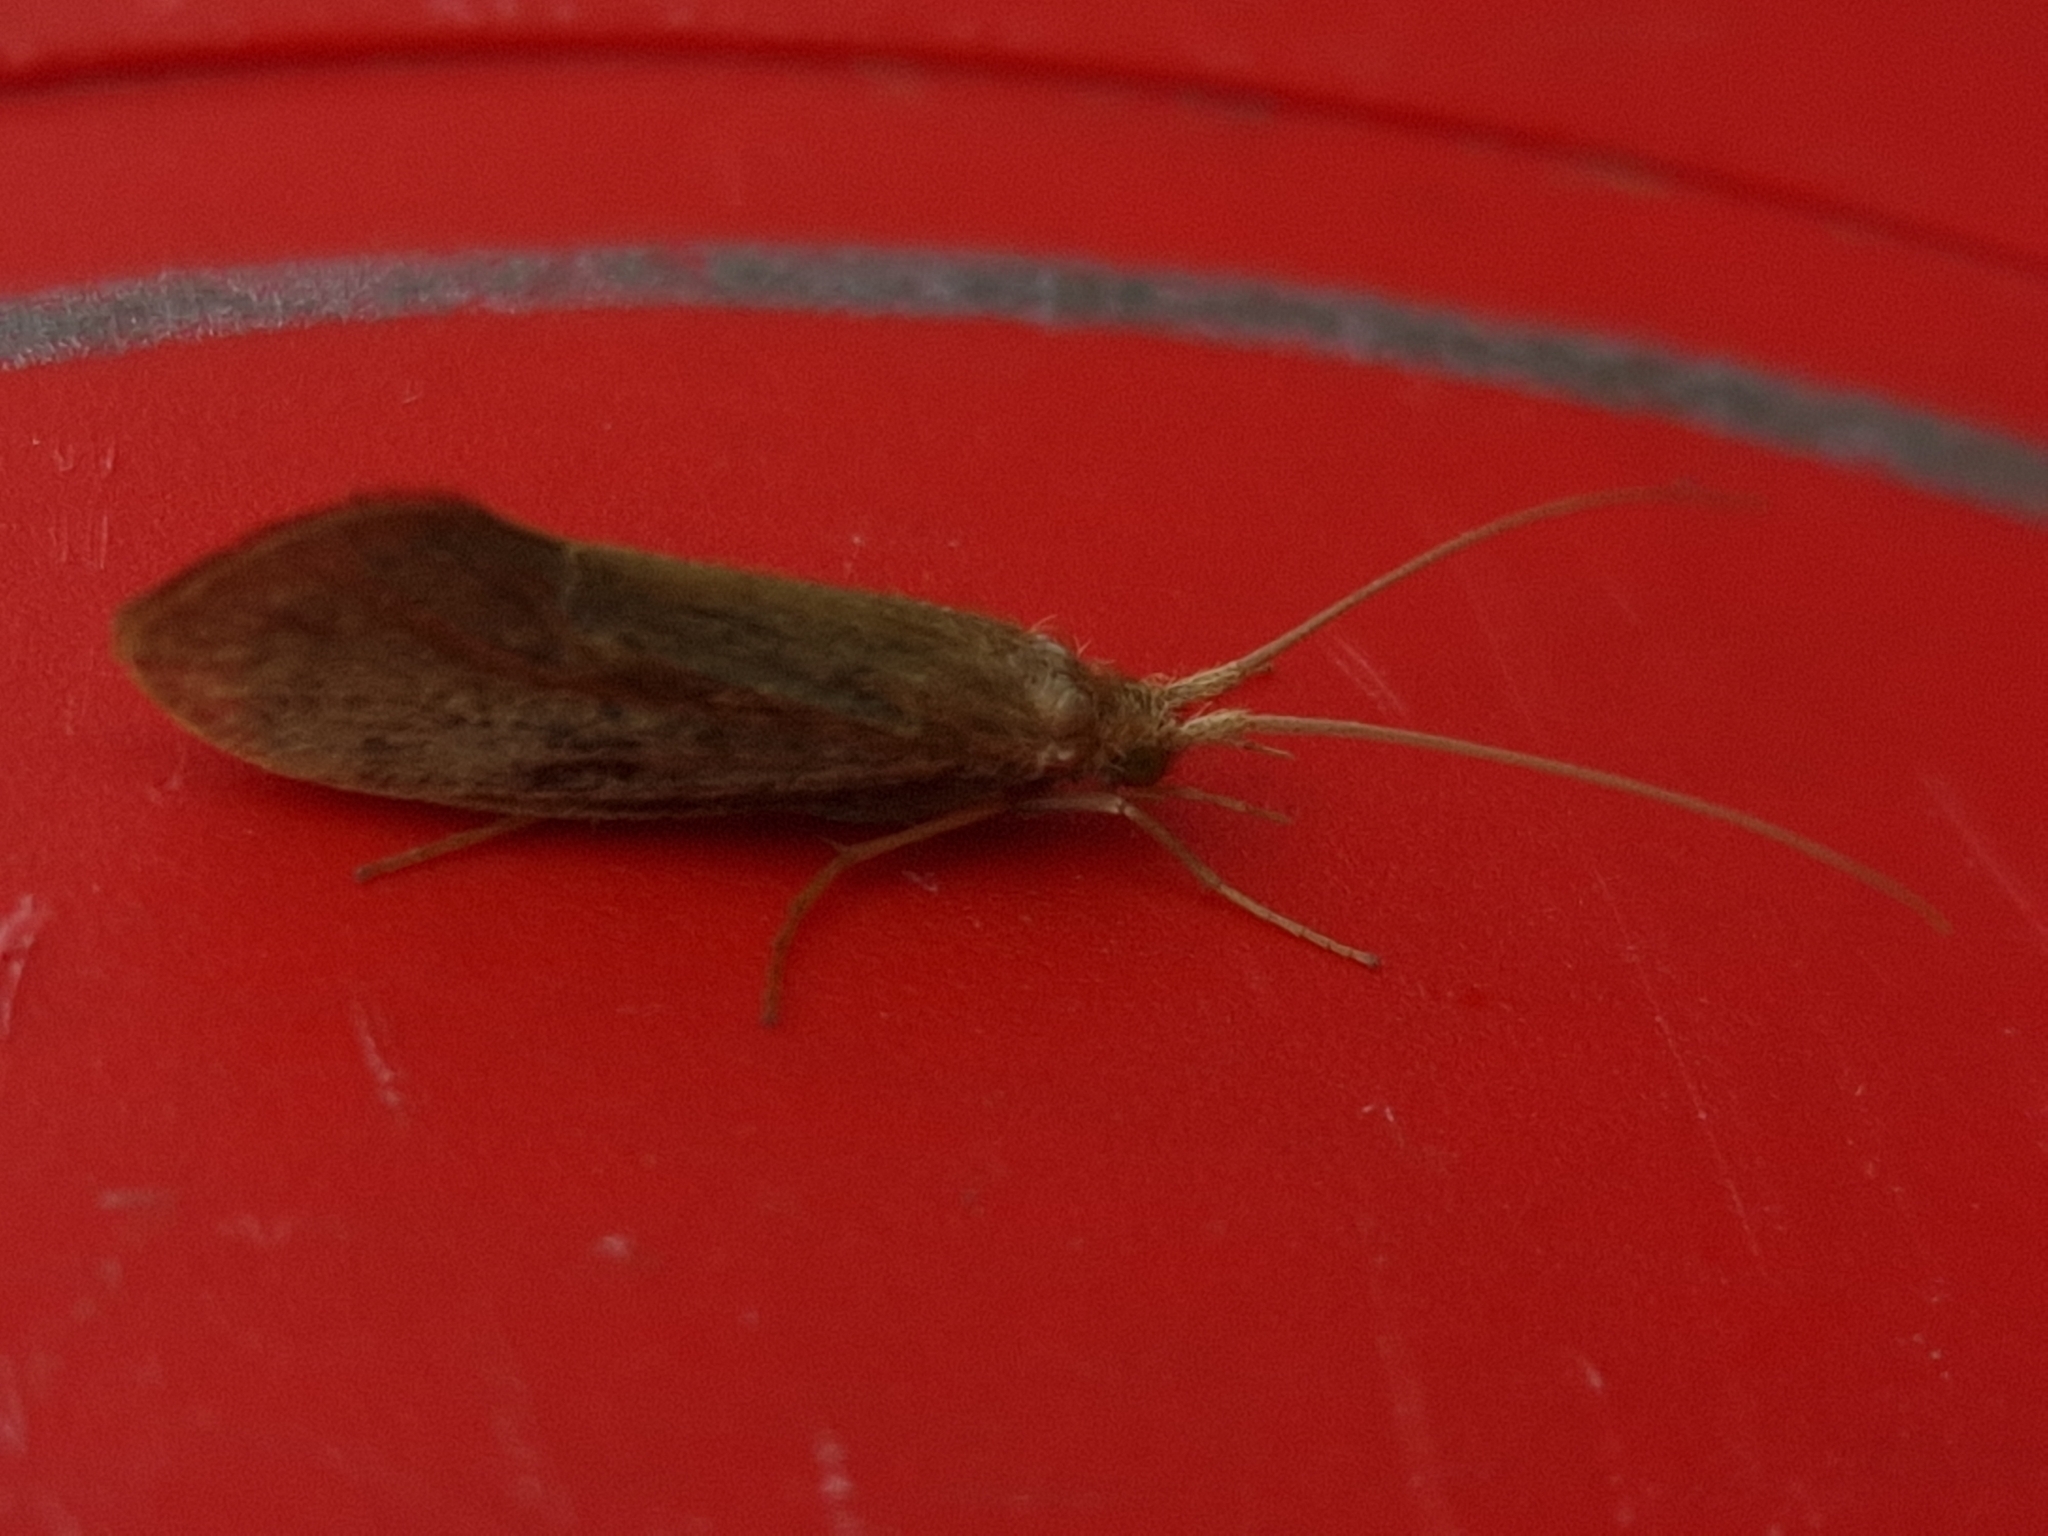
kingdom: Animalia
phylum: Arthropoda
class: Insecta
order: Trichoptera
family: Goeridae
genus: Goera
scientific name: Goera pilosa
